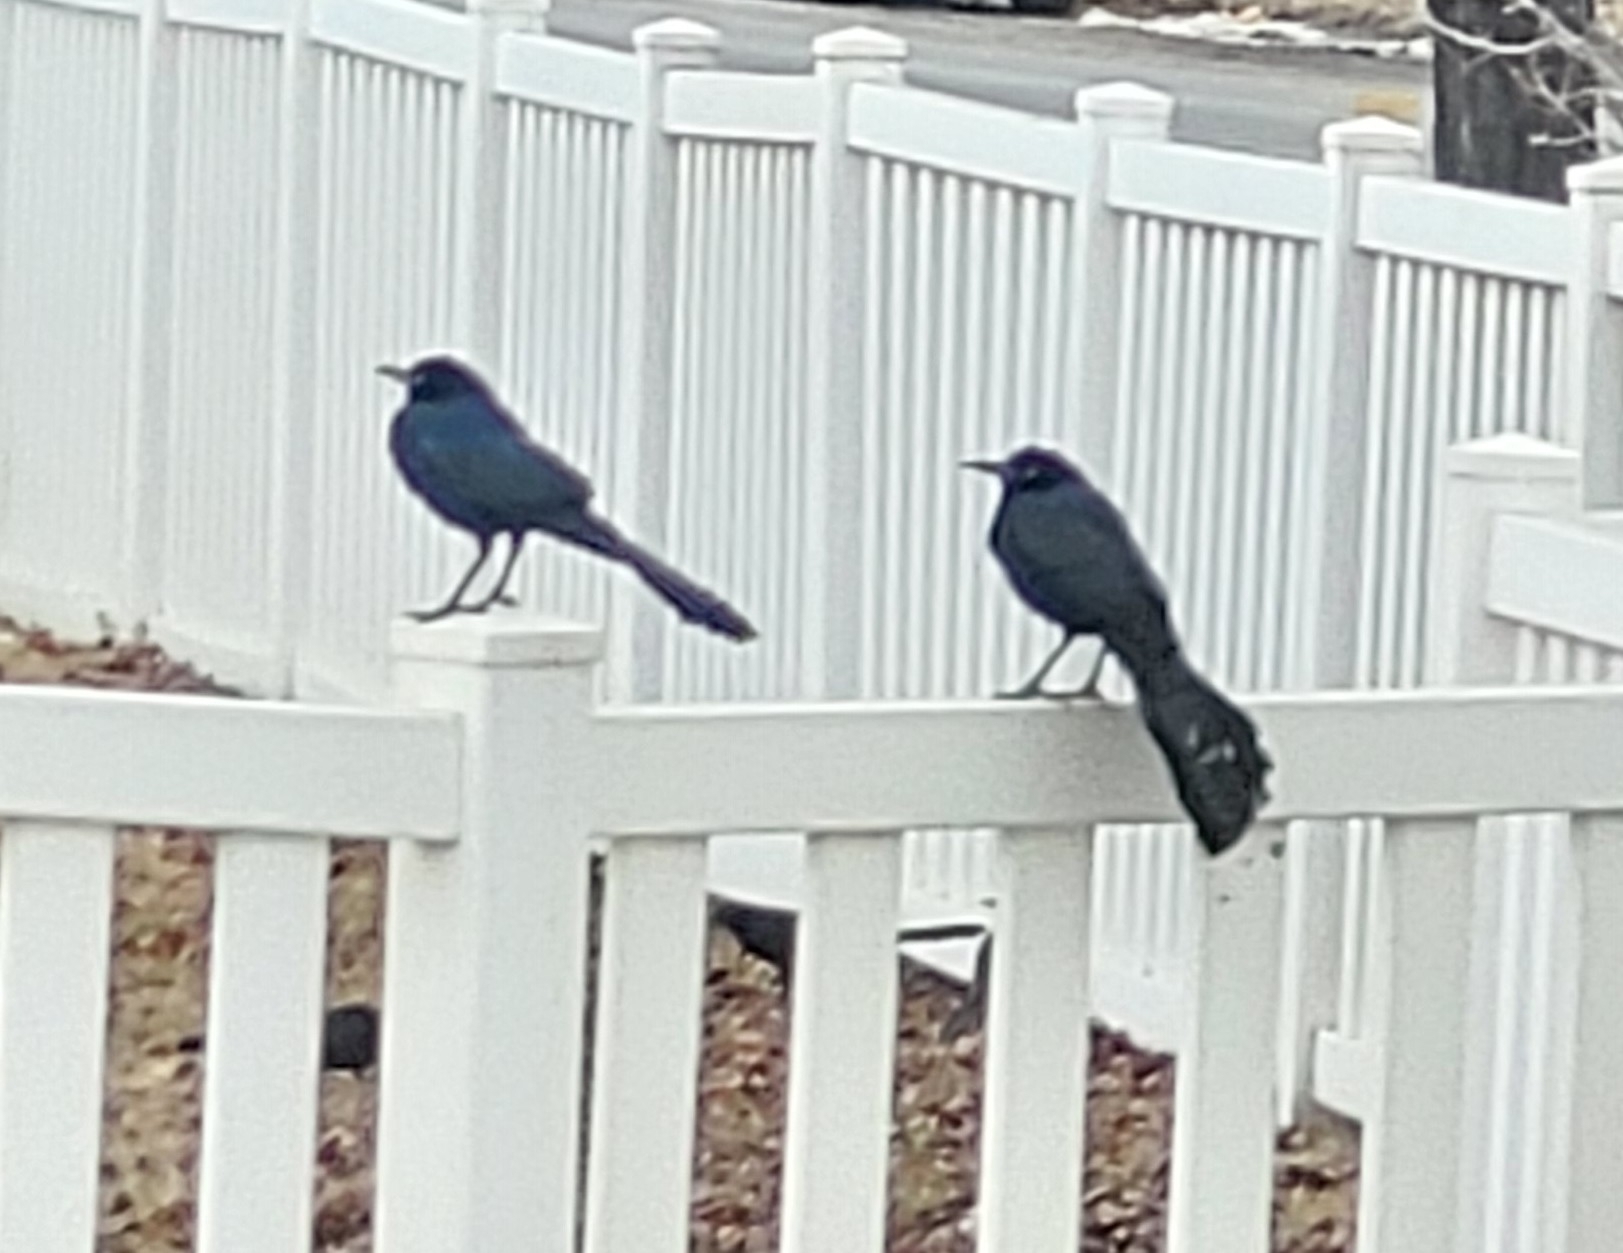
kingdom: Animalia
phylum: Chordata
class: Aves
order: Passeriformes
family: Icteridae
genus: Quiscalus
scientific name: Quiscalus mexicanus
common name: Great-tailed grackle
